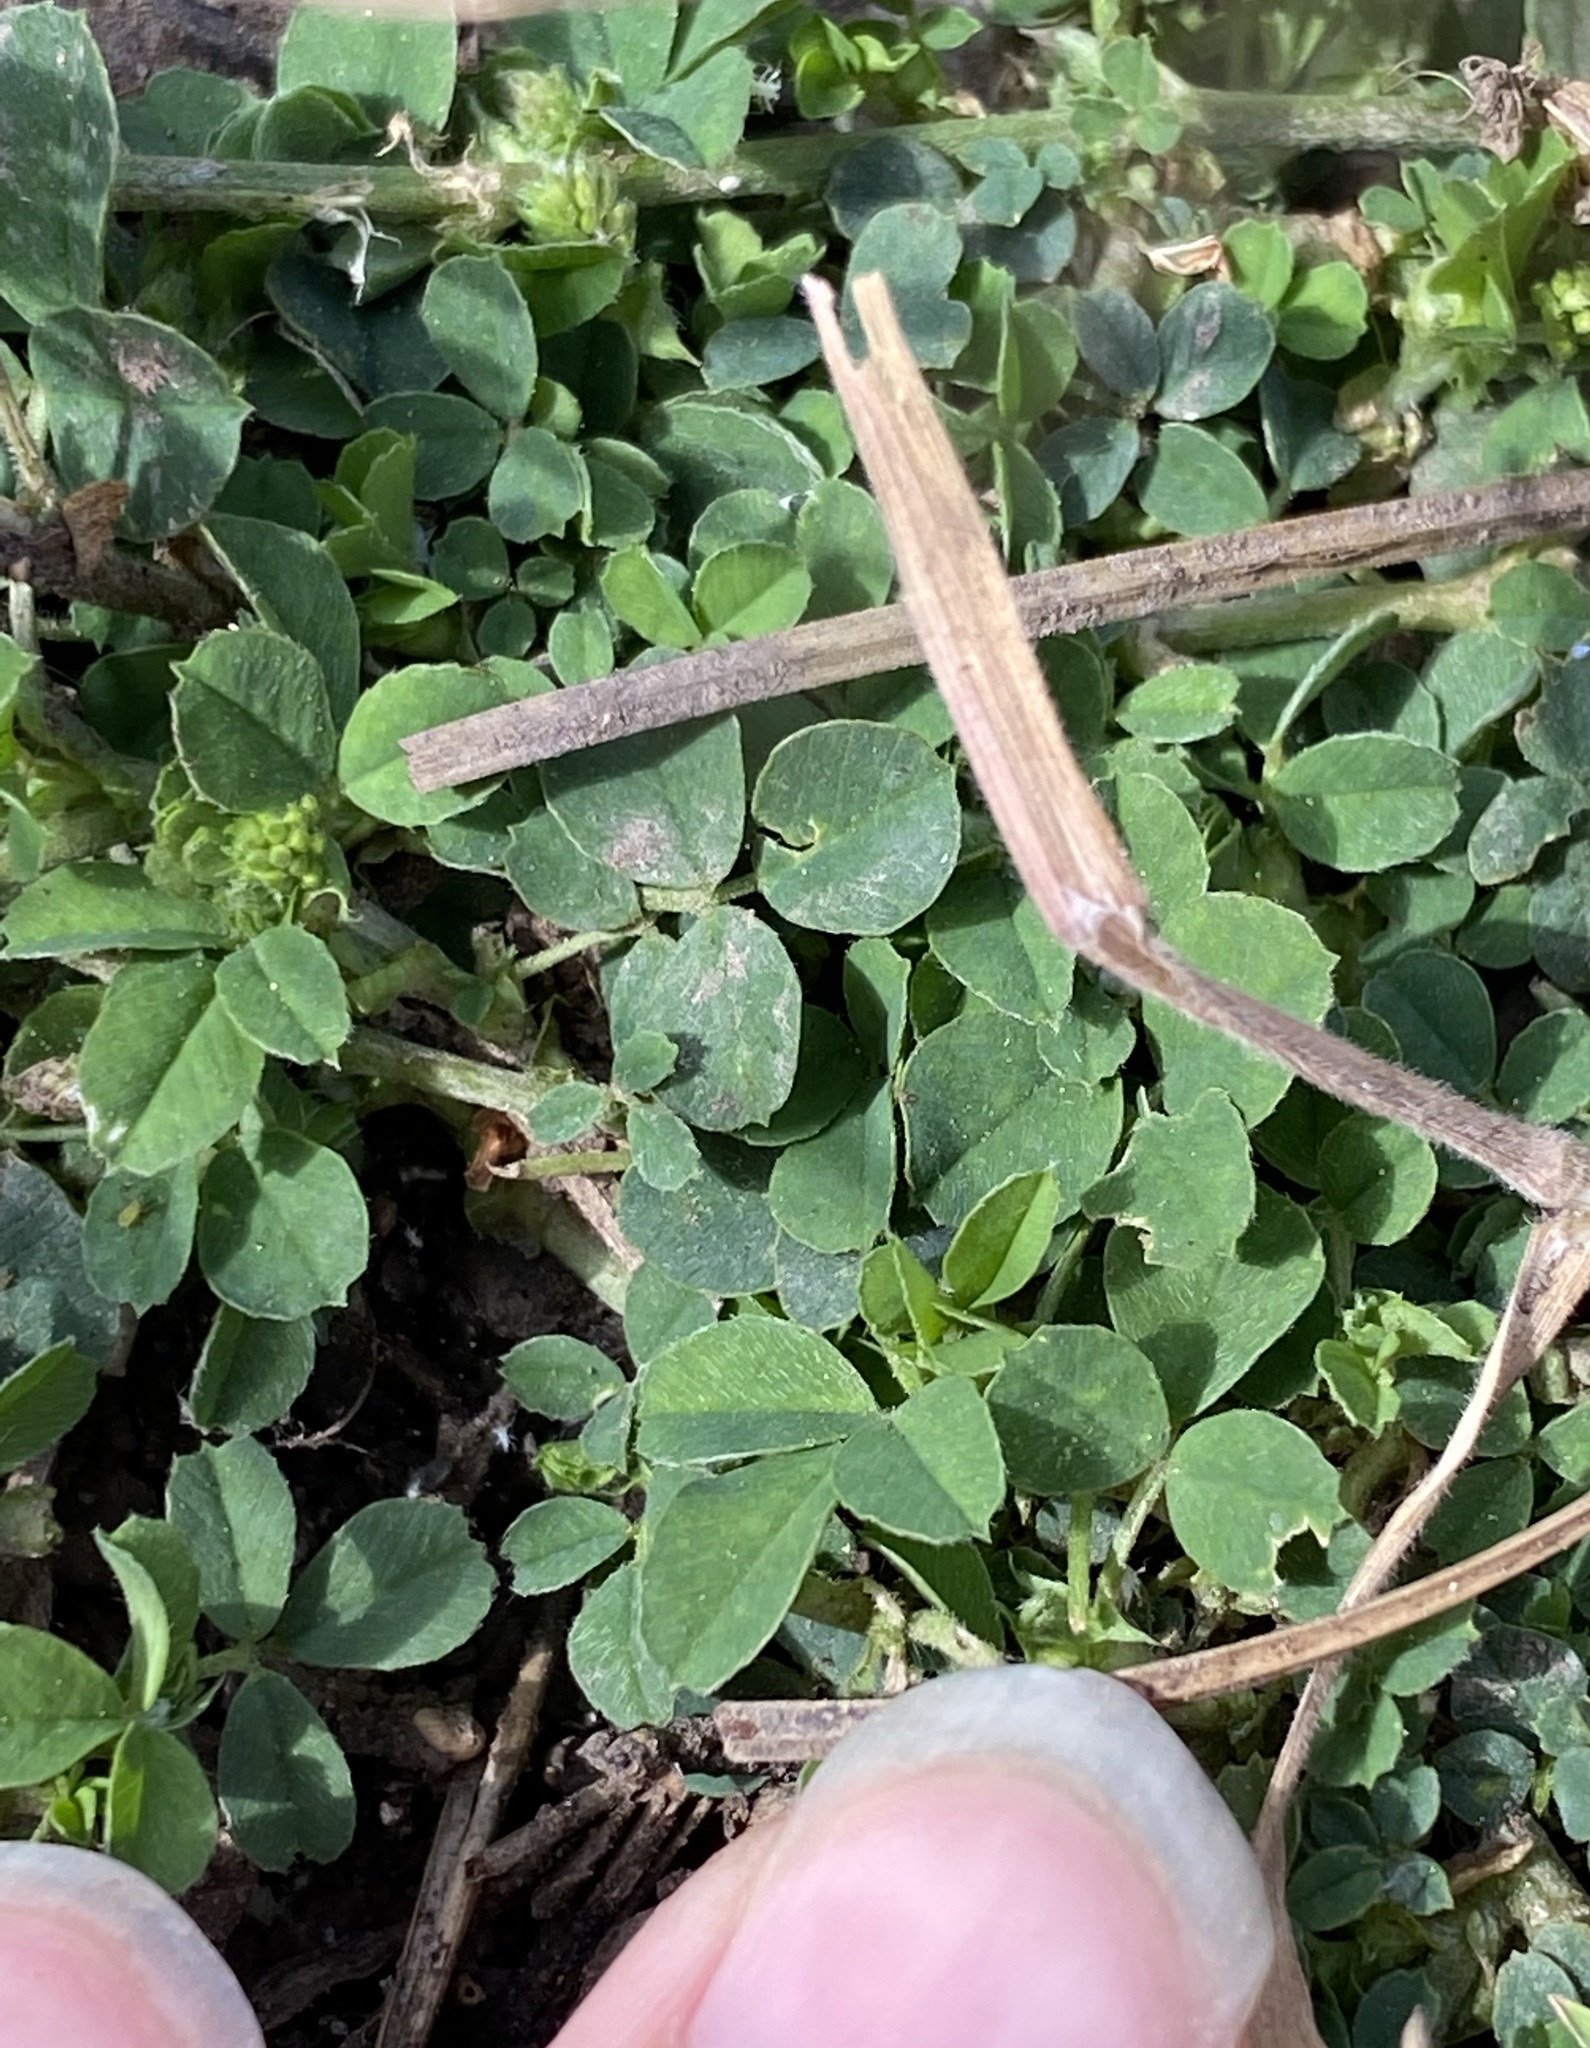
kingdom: Plantae
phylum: Tracheophyta
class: Magnoliopsida
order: Fabales
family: Fabaceae
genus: Medicago
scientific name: Medicago lupulina
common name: Black medick
